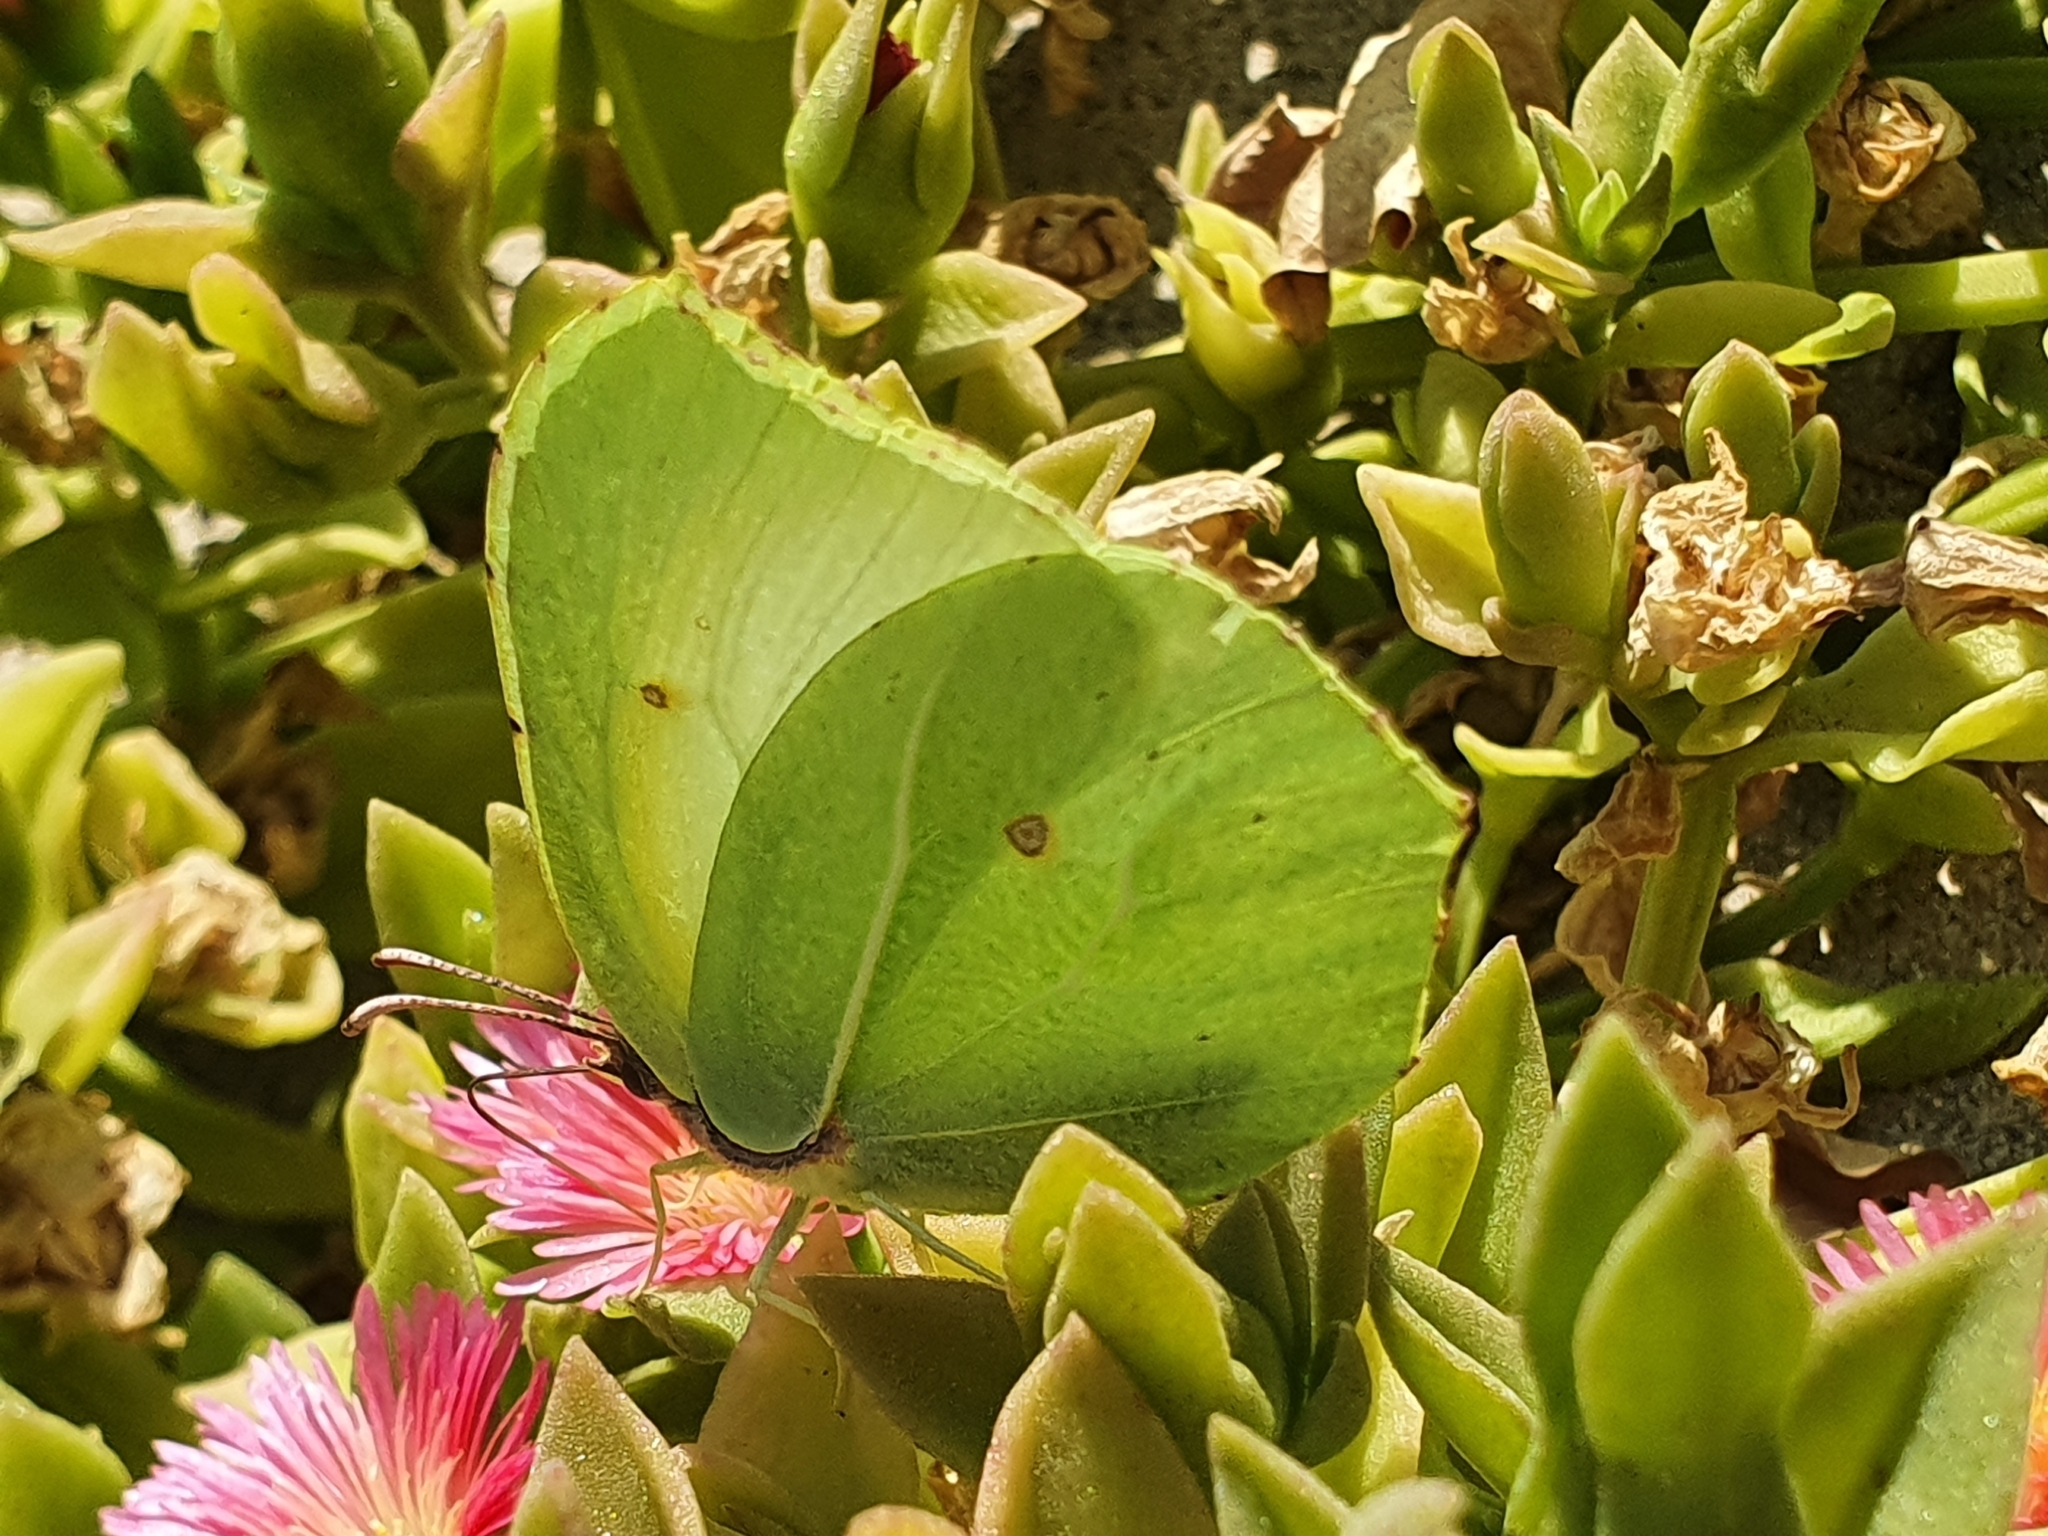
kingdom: Animalia
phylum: Arthropoda
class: Insecta
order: Lepidoptera
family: Pieridae
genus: Gonepteryx
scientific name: Gonepteryx rhamni
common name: Brimstone
